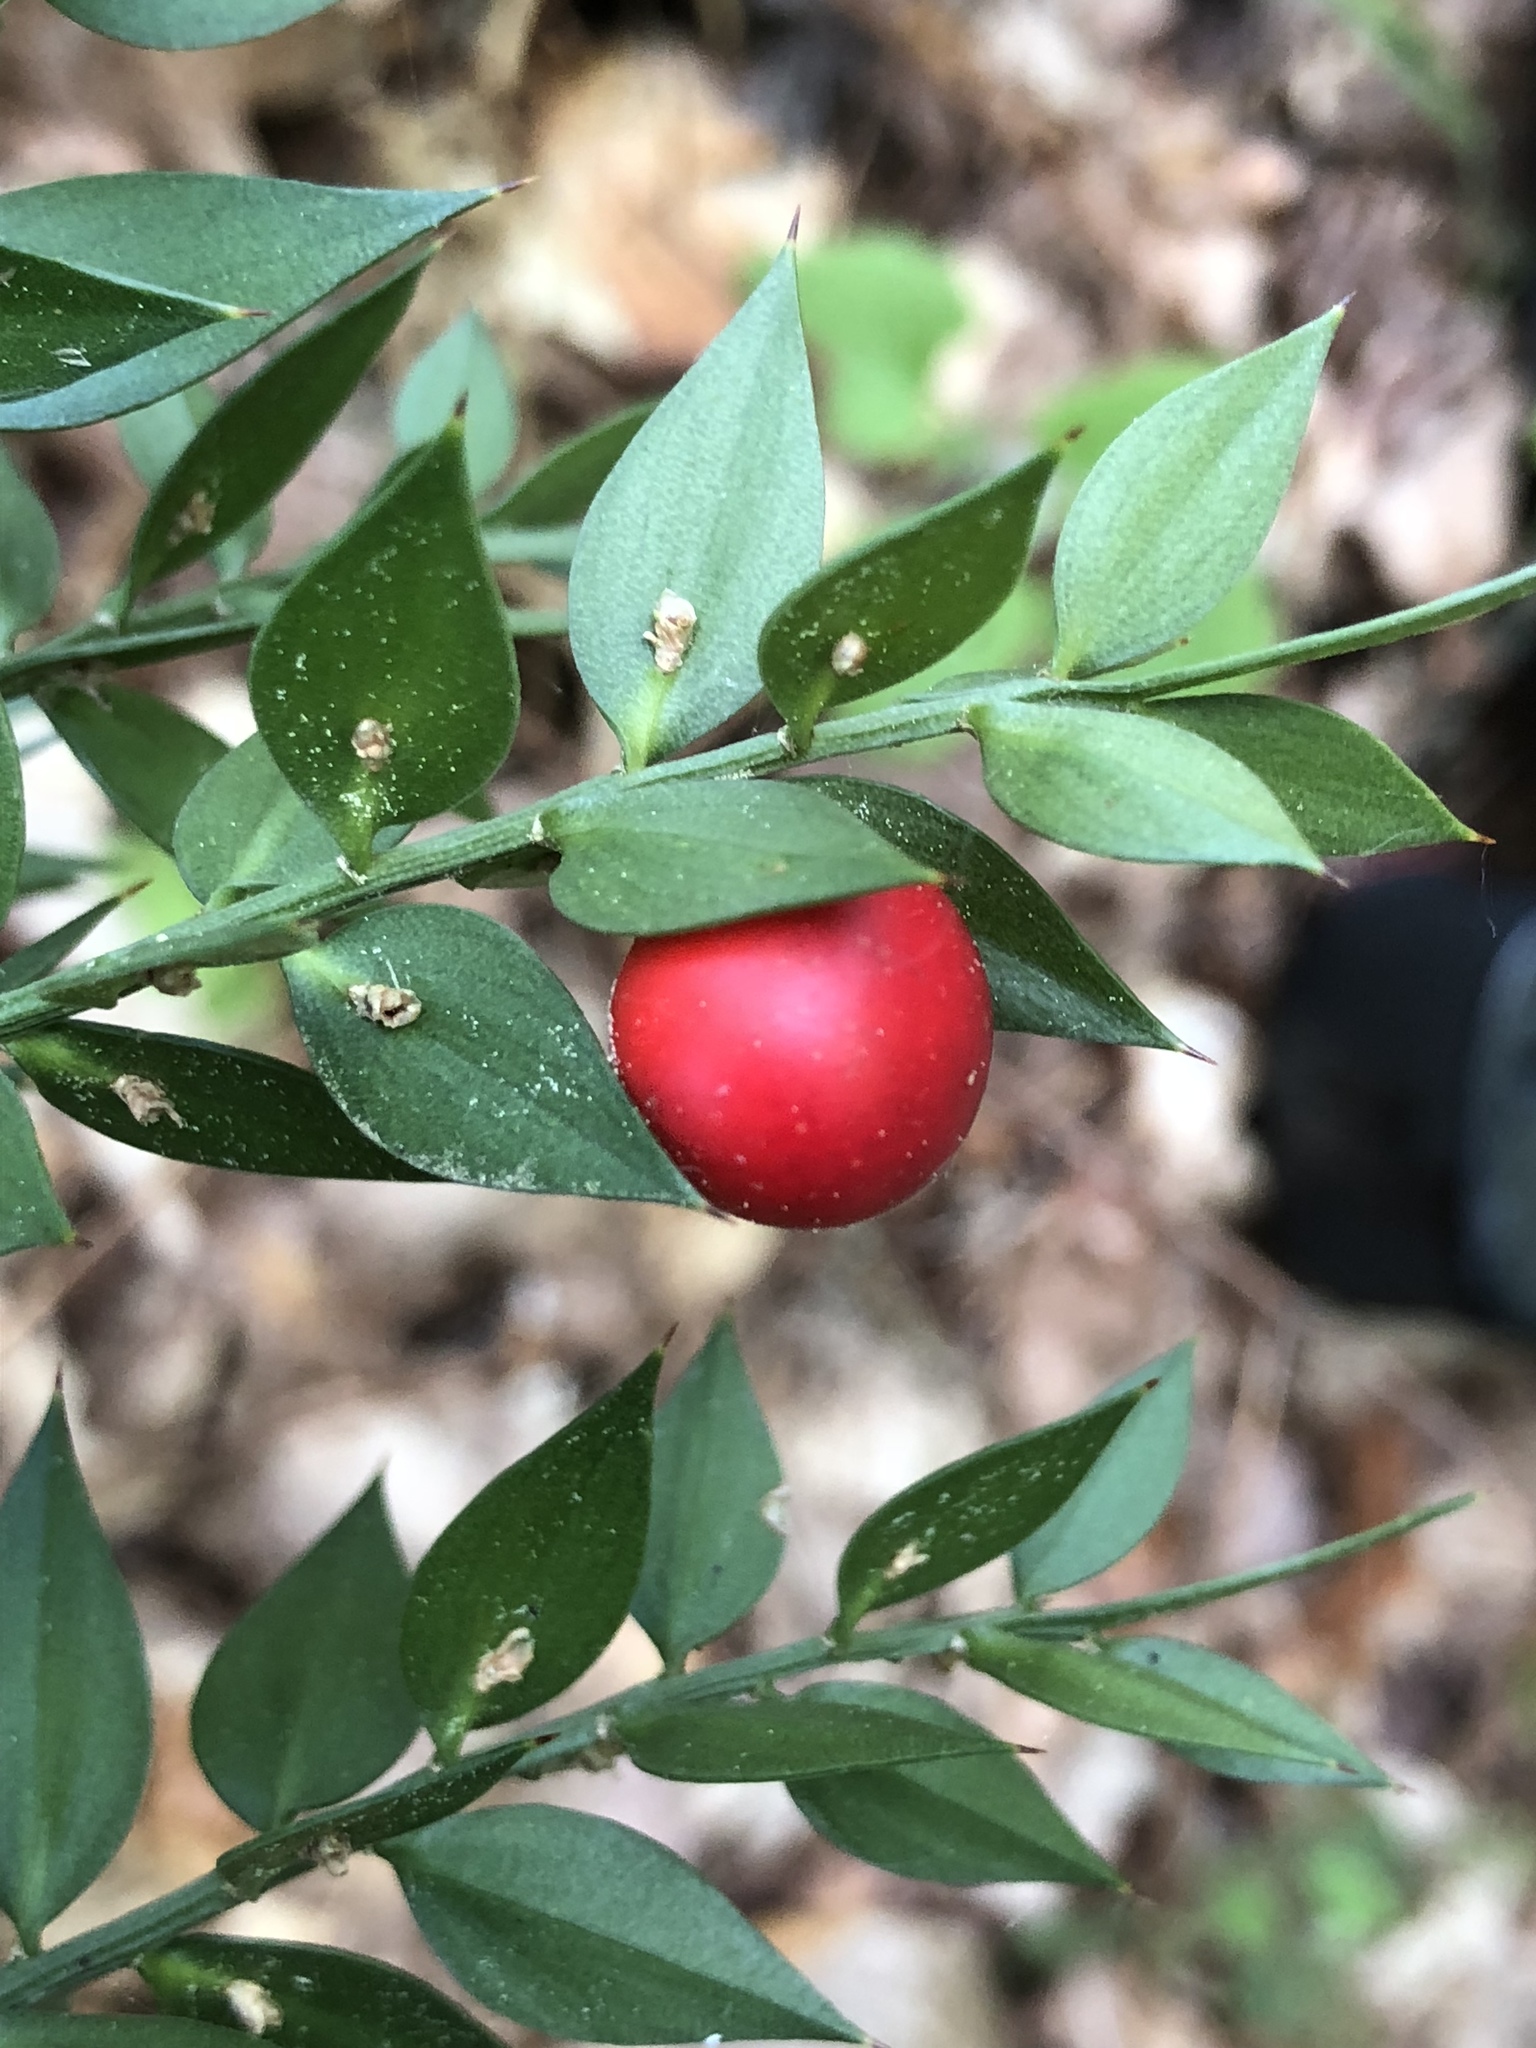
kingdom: Plantae
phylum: Tracheophyta
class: Liliopsida
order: Asparagales
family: Asparagaceae
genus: Ruscus
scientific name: Ruscus aculeatus
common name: Butcher's-broom
